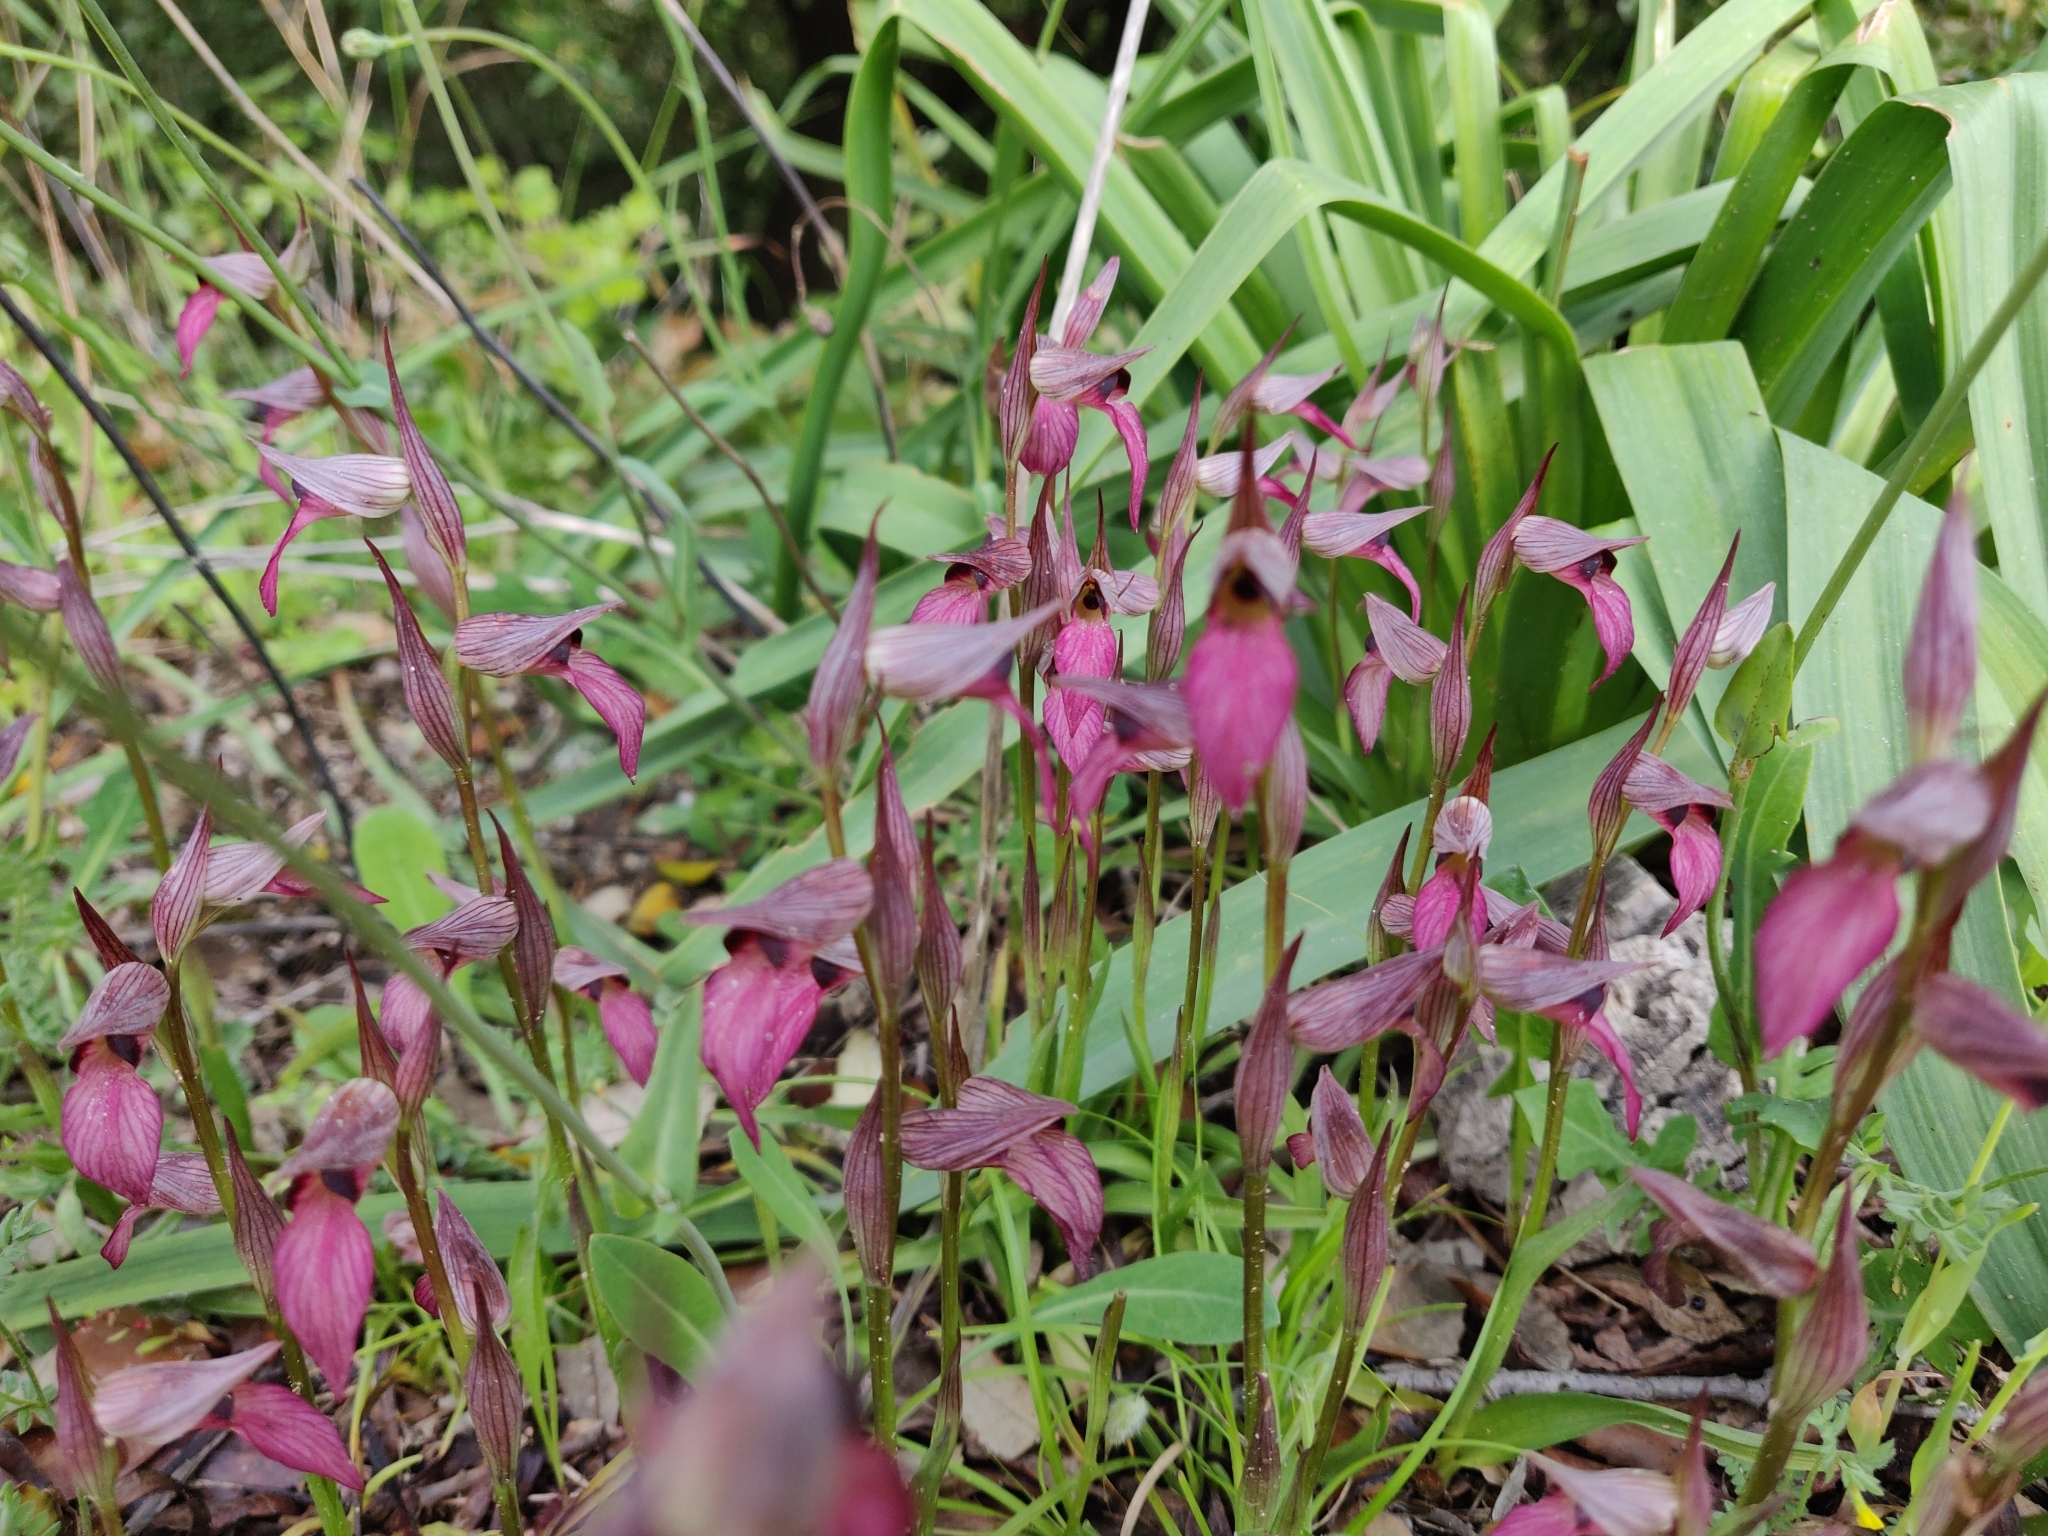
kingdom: Plantae
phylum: Tracheophyta
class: Liliopsida
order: Asparagales
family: Orchidaceae
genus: Serapias
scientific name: Serapias lingua
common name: Tongue-orchid
